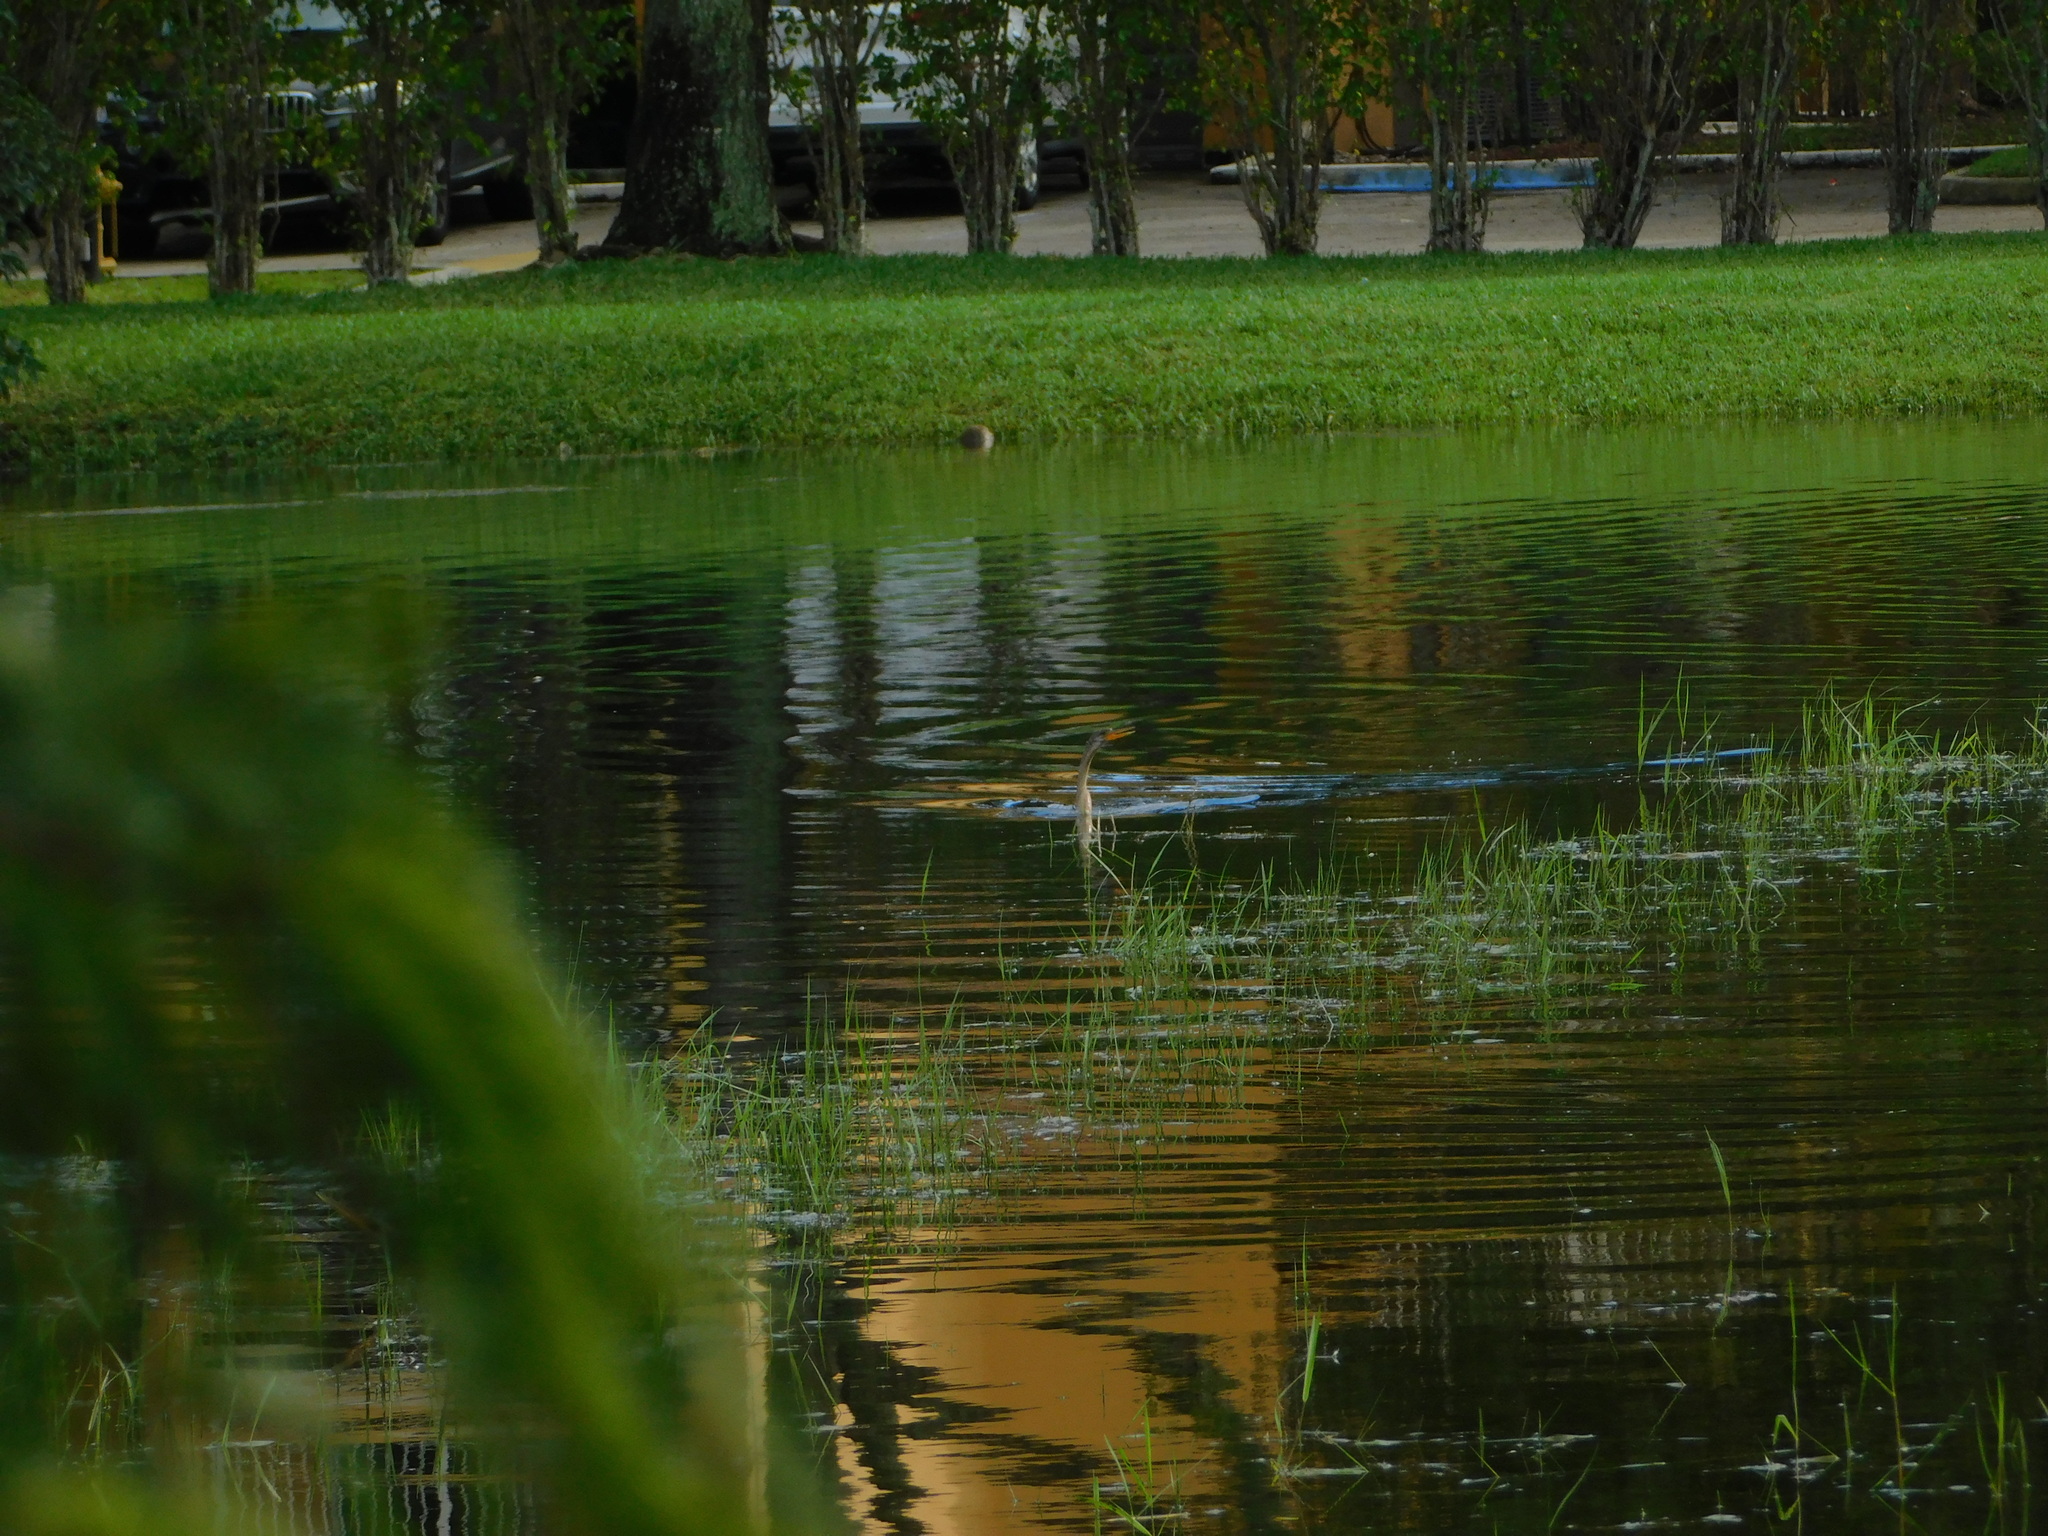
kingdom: Animalia
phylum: Chordata
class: Aves
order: Suliformes
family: Anhingidae
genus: Anhinga
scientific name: Anhinga anhinga
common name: Anhinga
